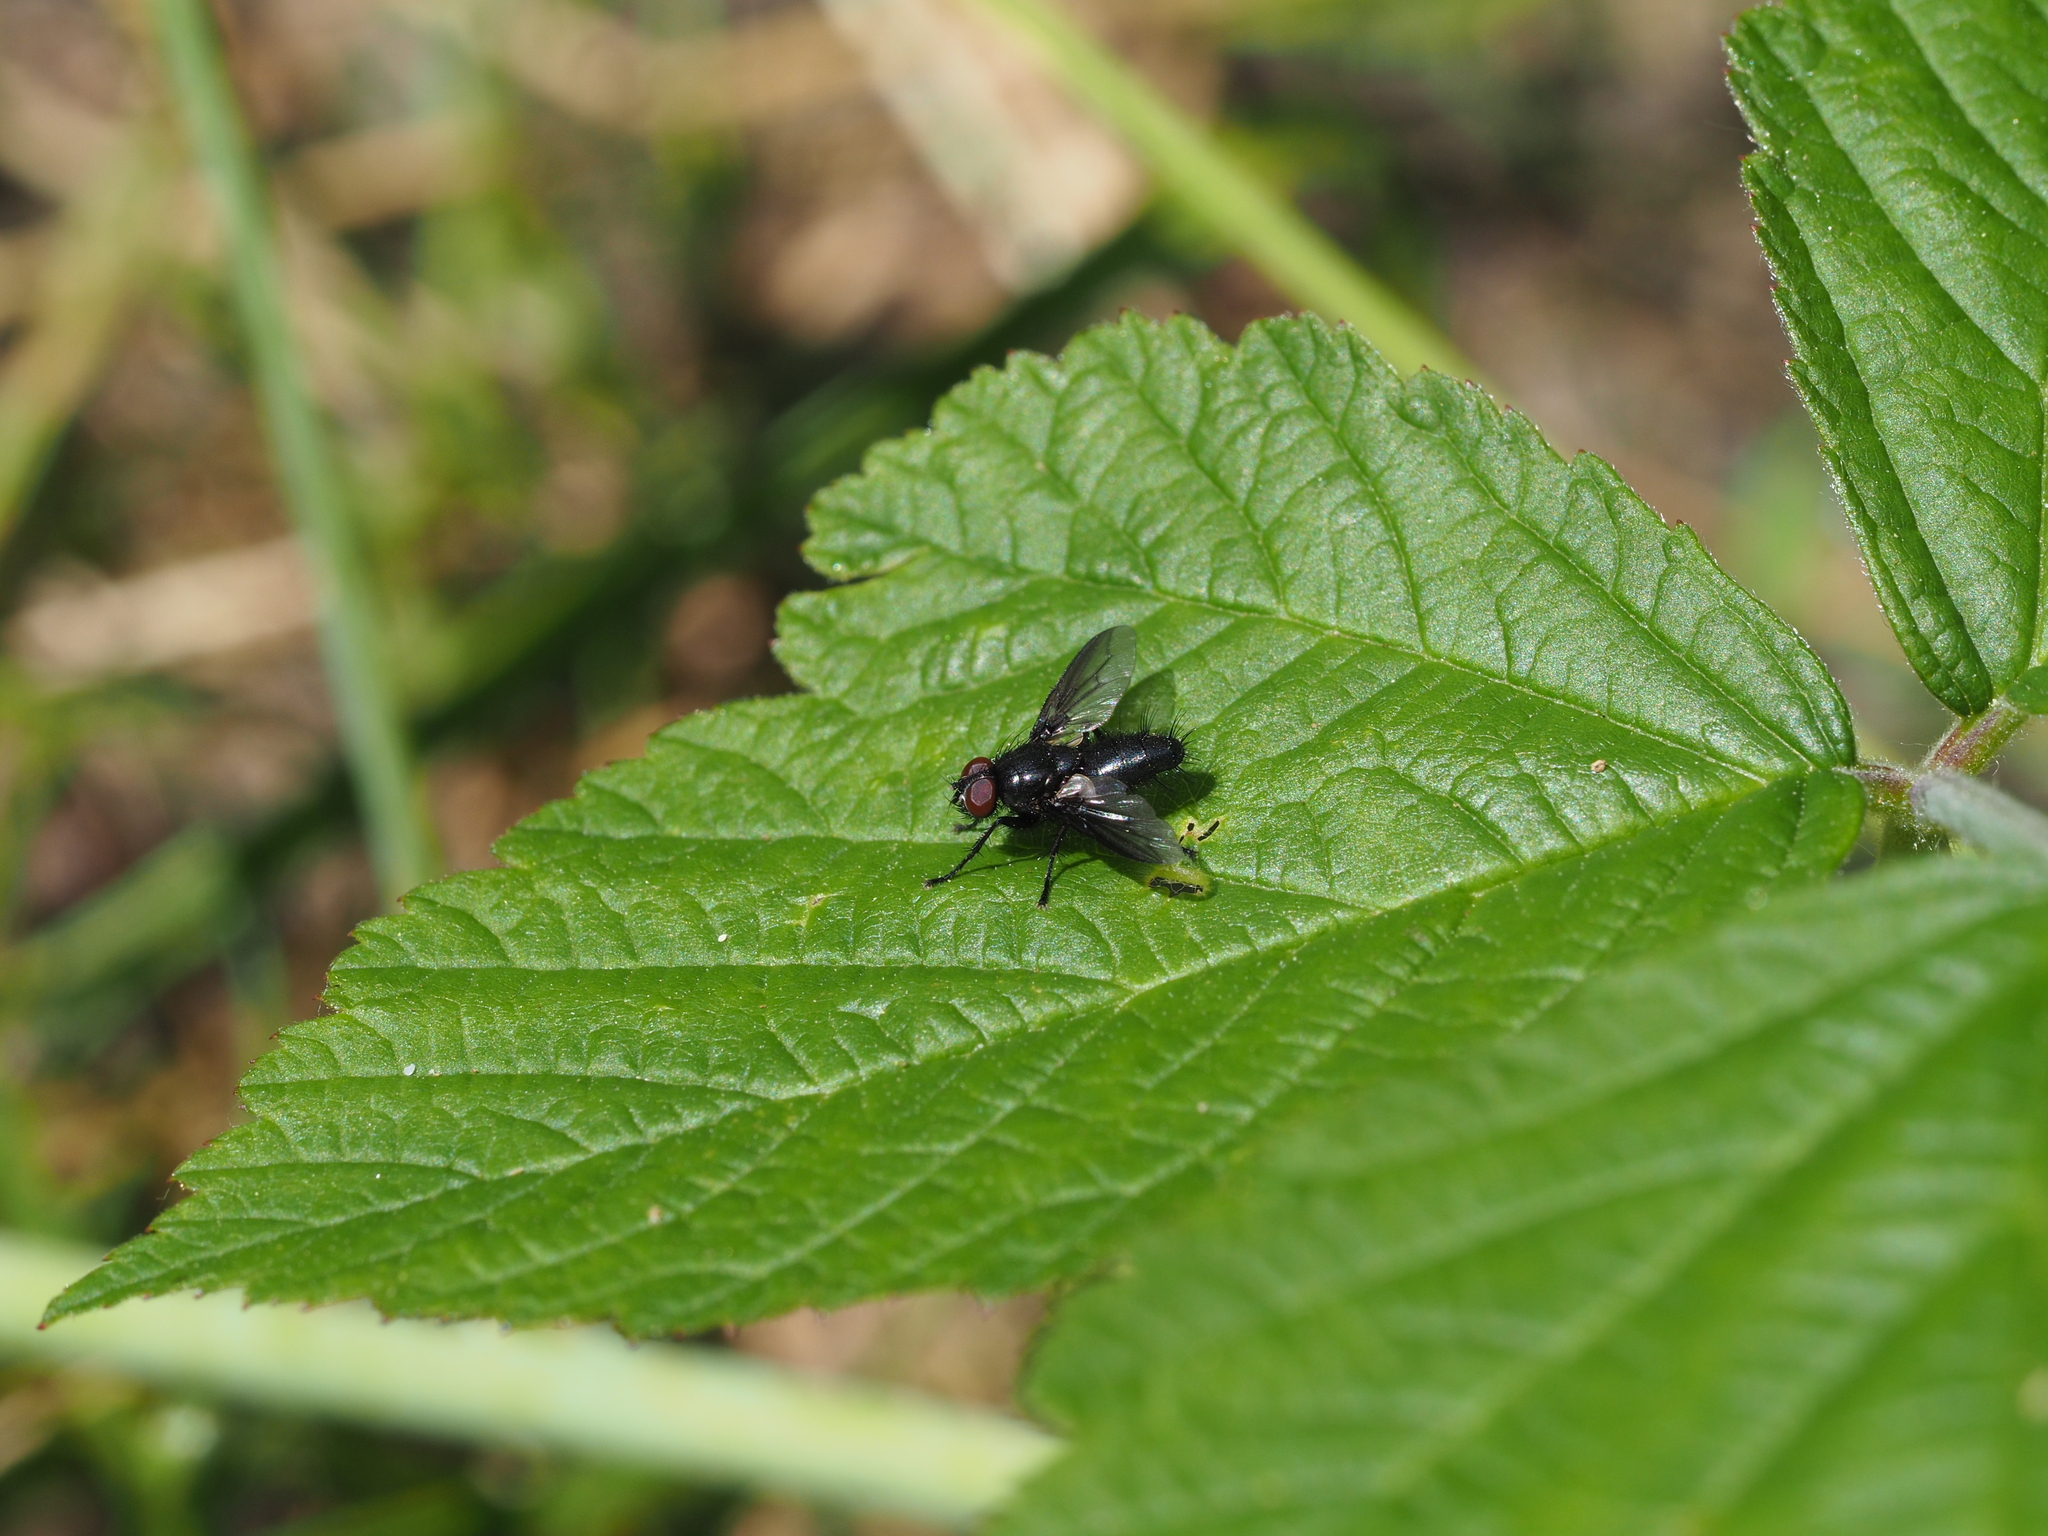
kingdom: Animalia
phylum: Arthropoda
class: Insecta
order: Diptera
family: Sarcophagidae
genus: Nyctia
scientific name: Nyctia halterata
